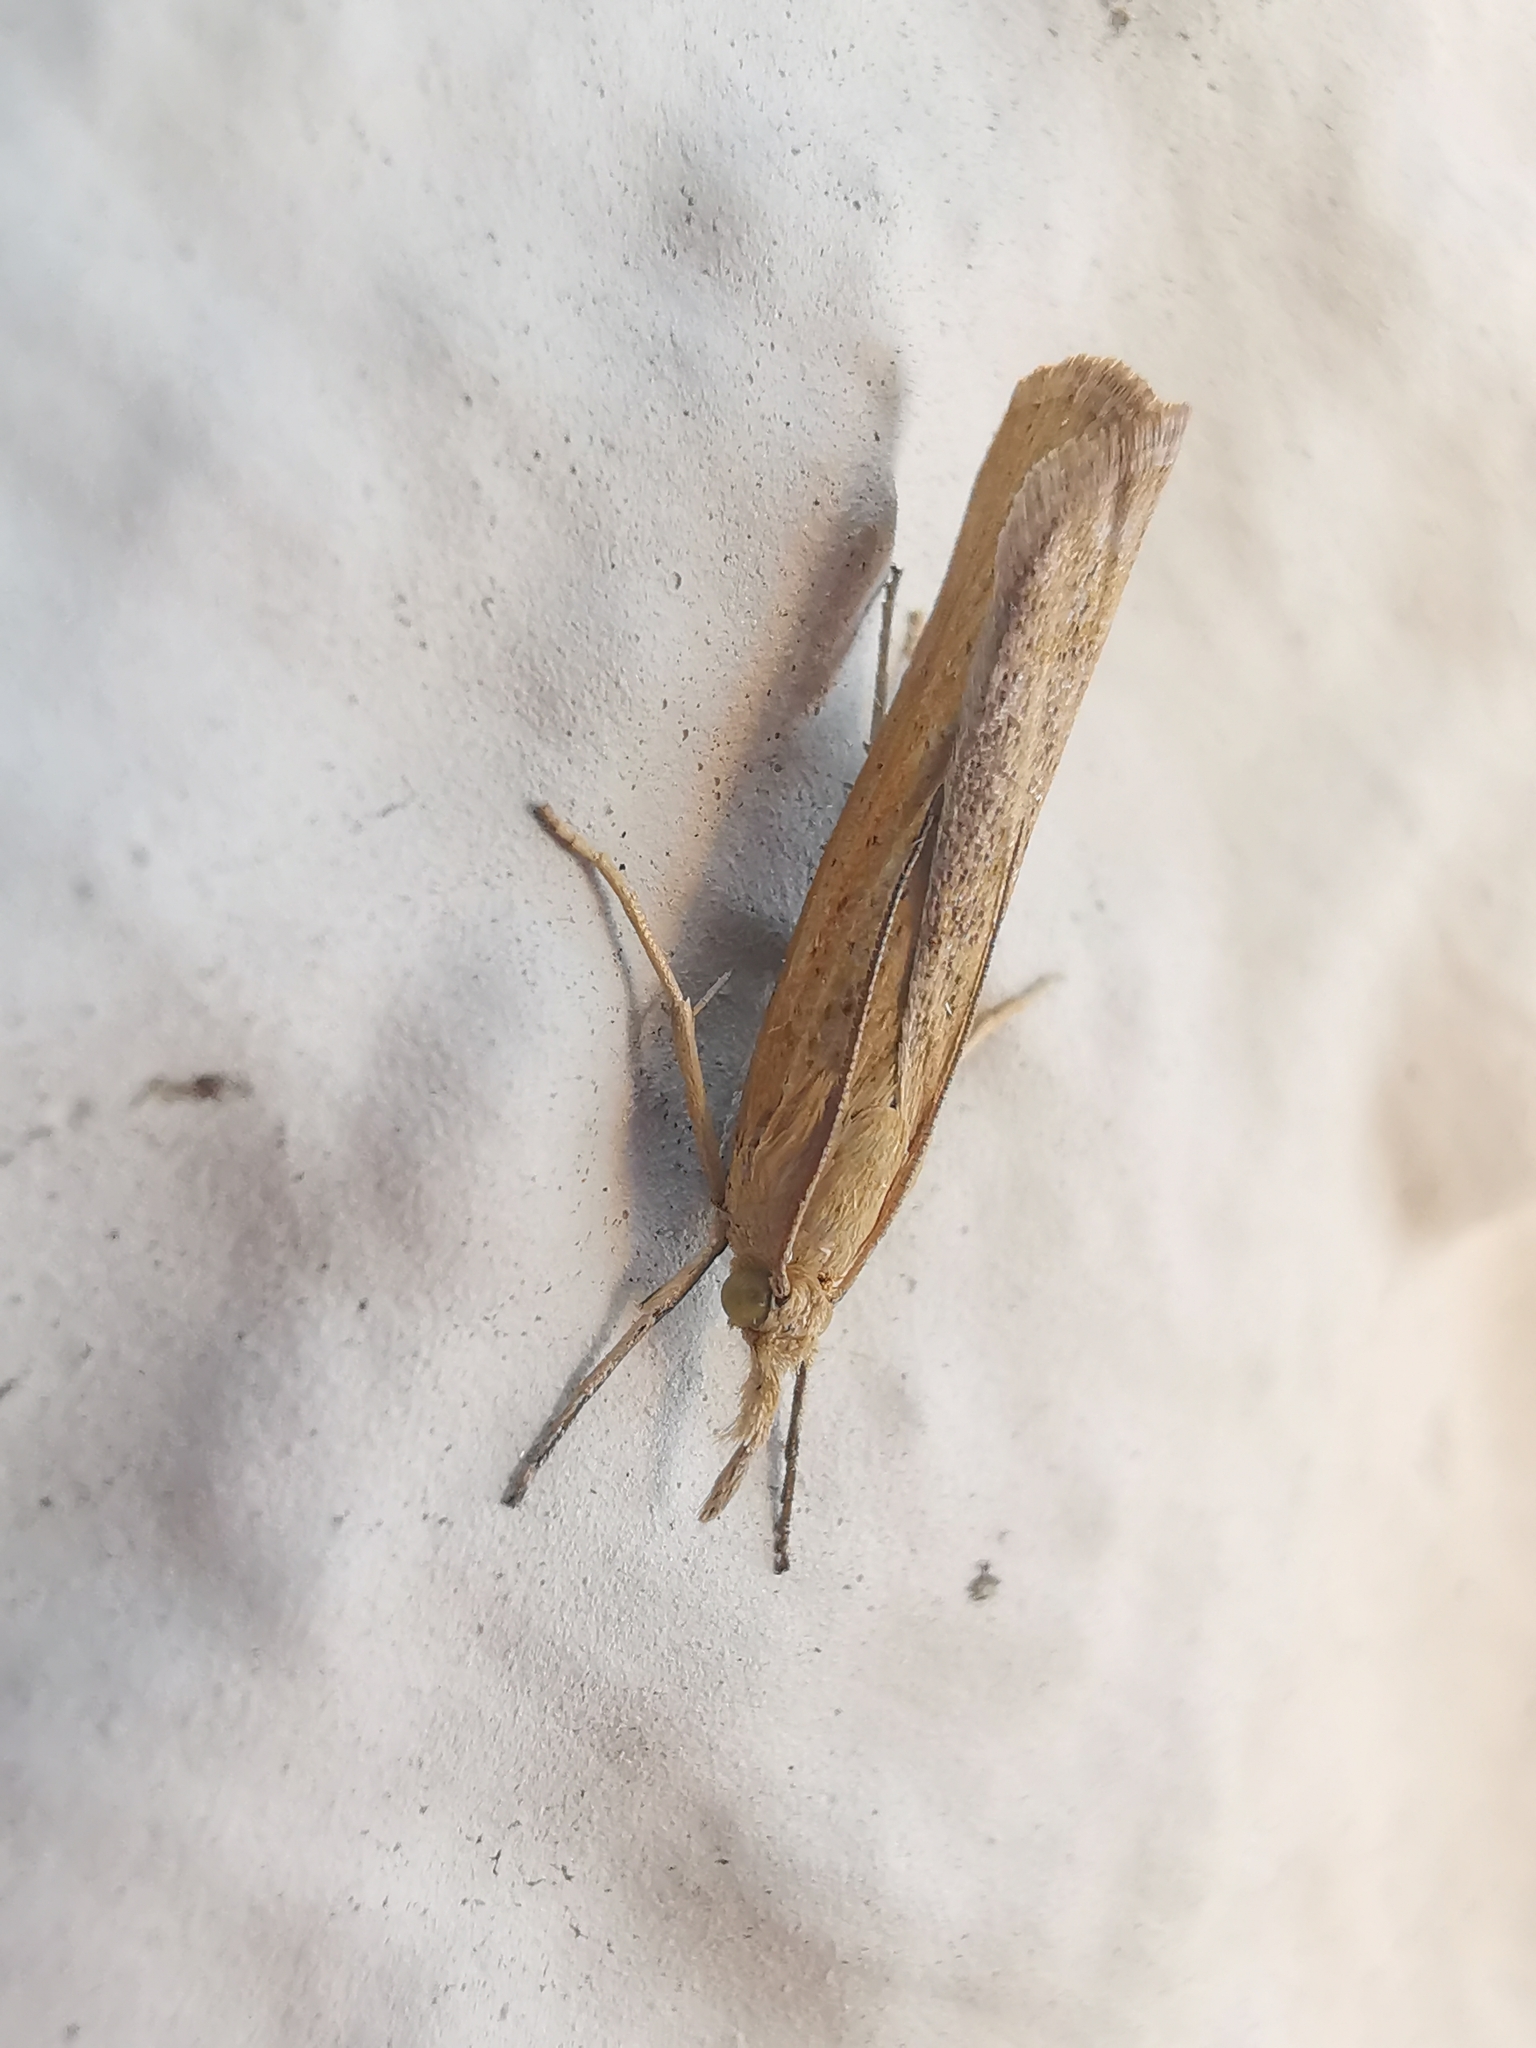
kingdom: Animalia
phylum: Arthropoda
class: Insecta
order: Lepidoptera
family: Crambidae
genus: Pediasia
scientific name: Pediasia luteella
